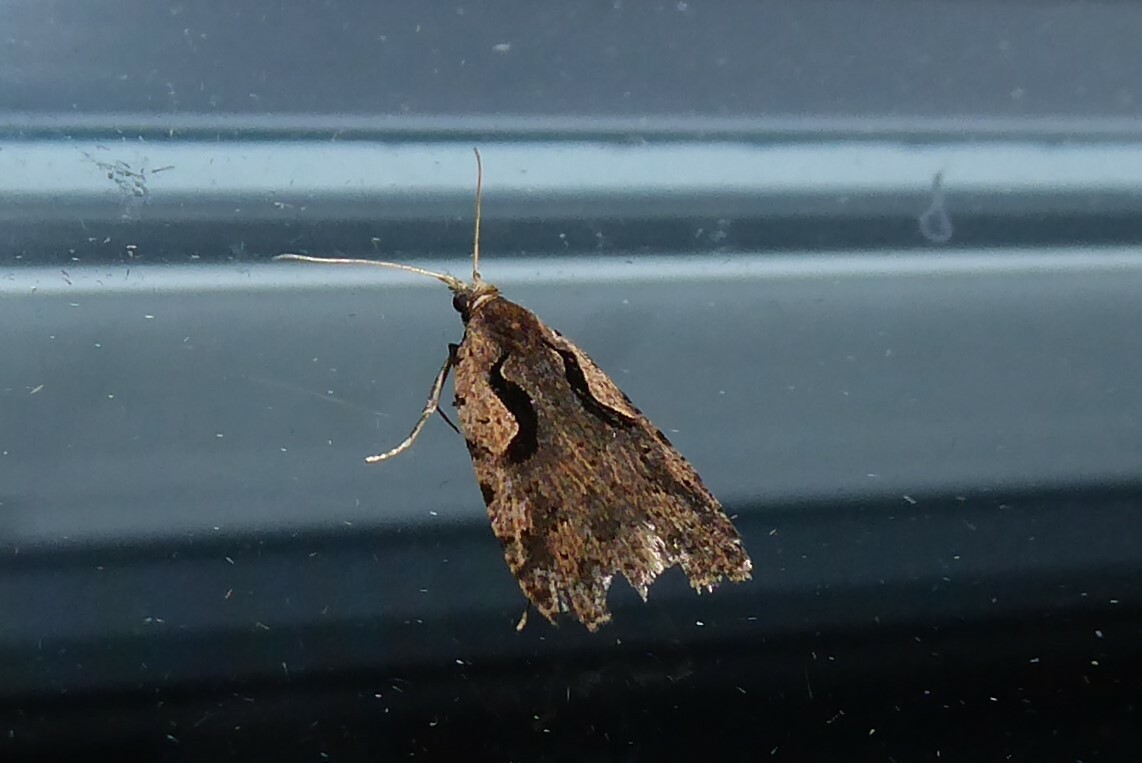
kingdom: Animalia
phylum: Arthropoda
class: Insecta
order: Lepidoptera
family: Tortricidae
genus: Cnephasia
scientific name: Cnephasia jactatana
